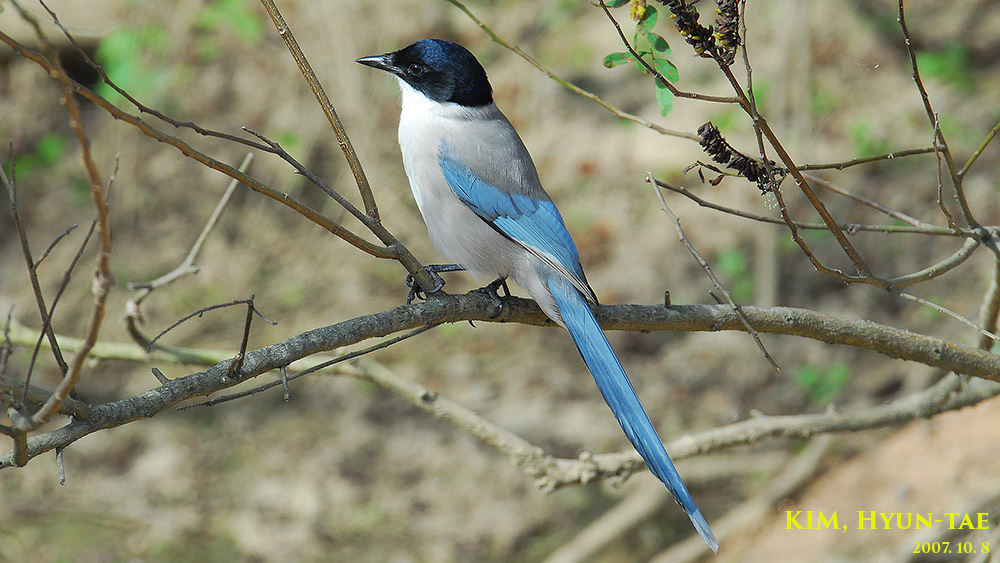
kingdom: Animalia
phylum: Chordata
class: Aves
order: Passeriformes
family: Corvidae
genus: Cyanopica
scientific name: Cyanopica cyanus
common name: Azure-winged magpie
